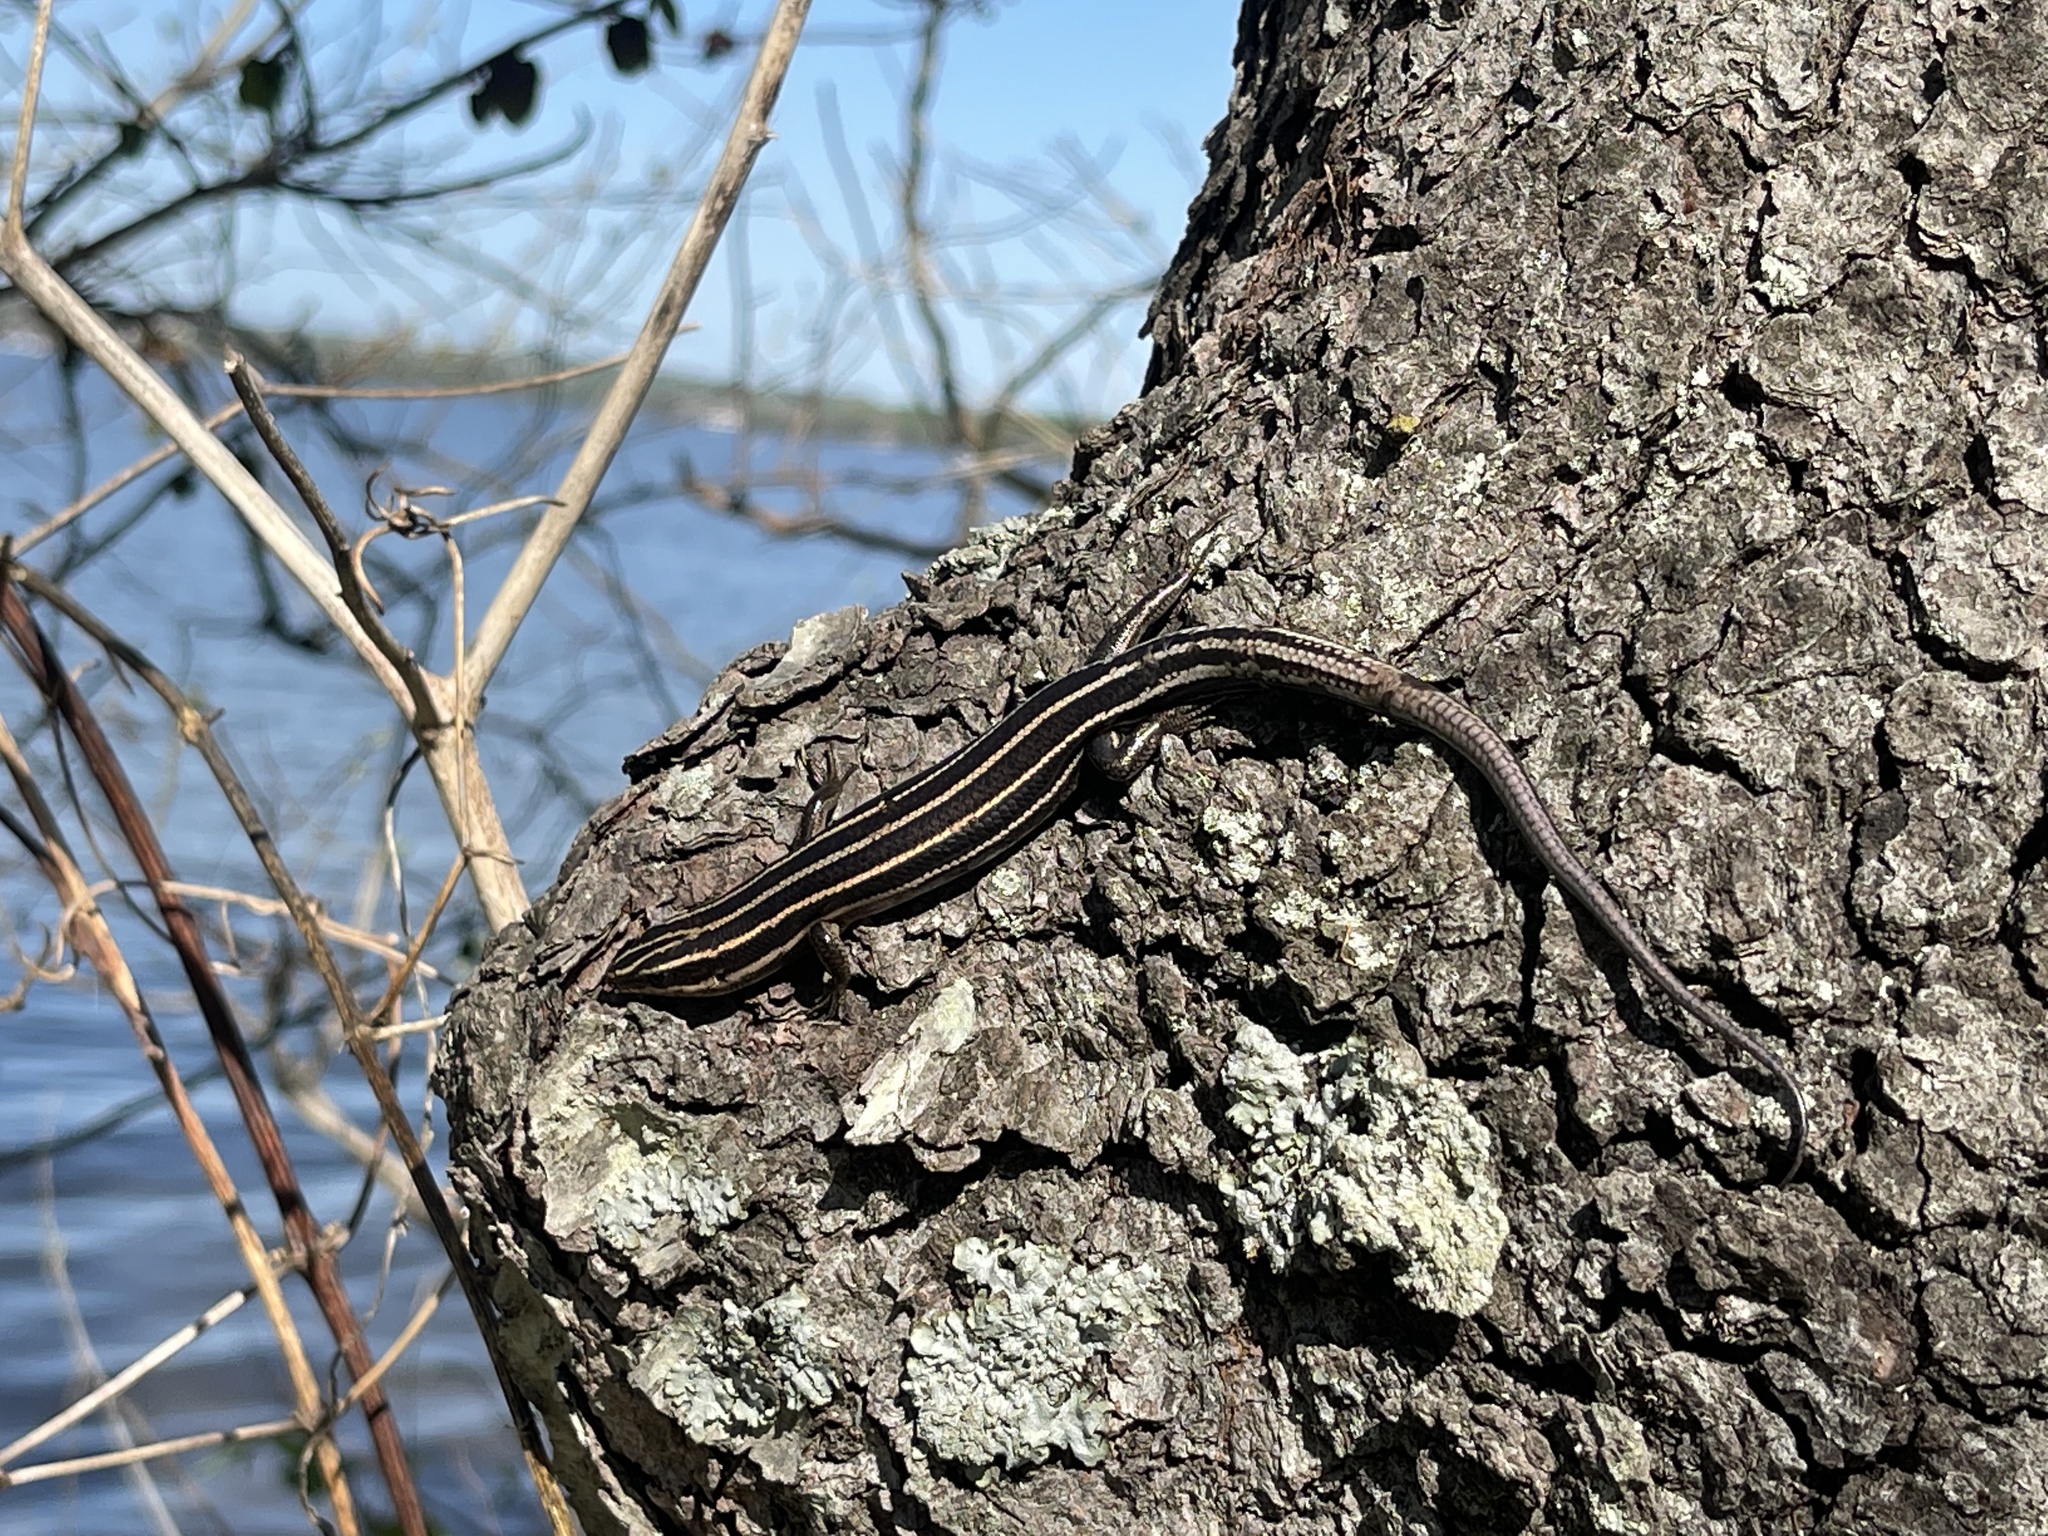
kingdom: Animalia
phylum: Chordata
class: Squamata
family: Scincidae
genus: Plestiodon
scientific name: Plestiodon fasciatus
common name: Five-lined skink
